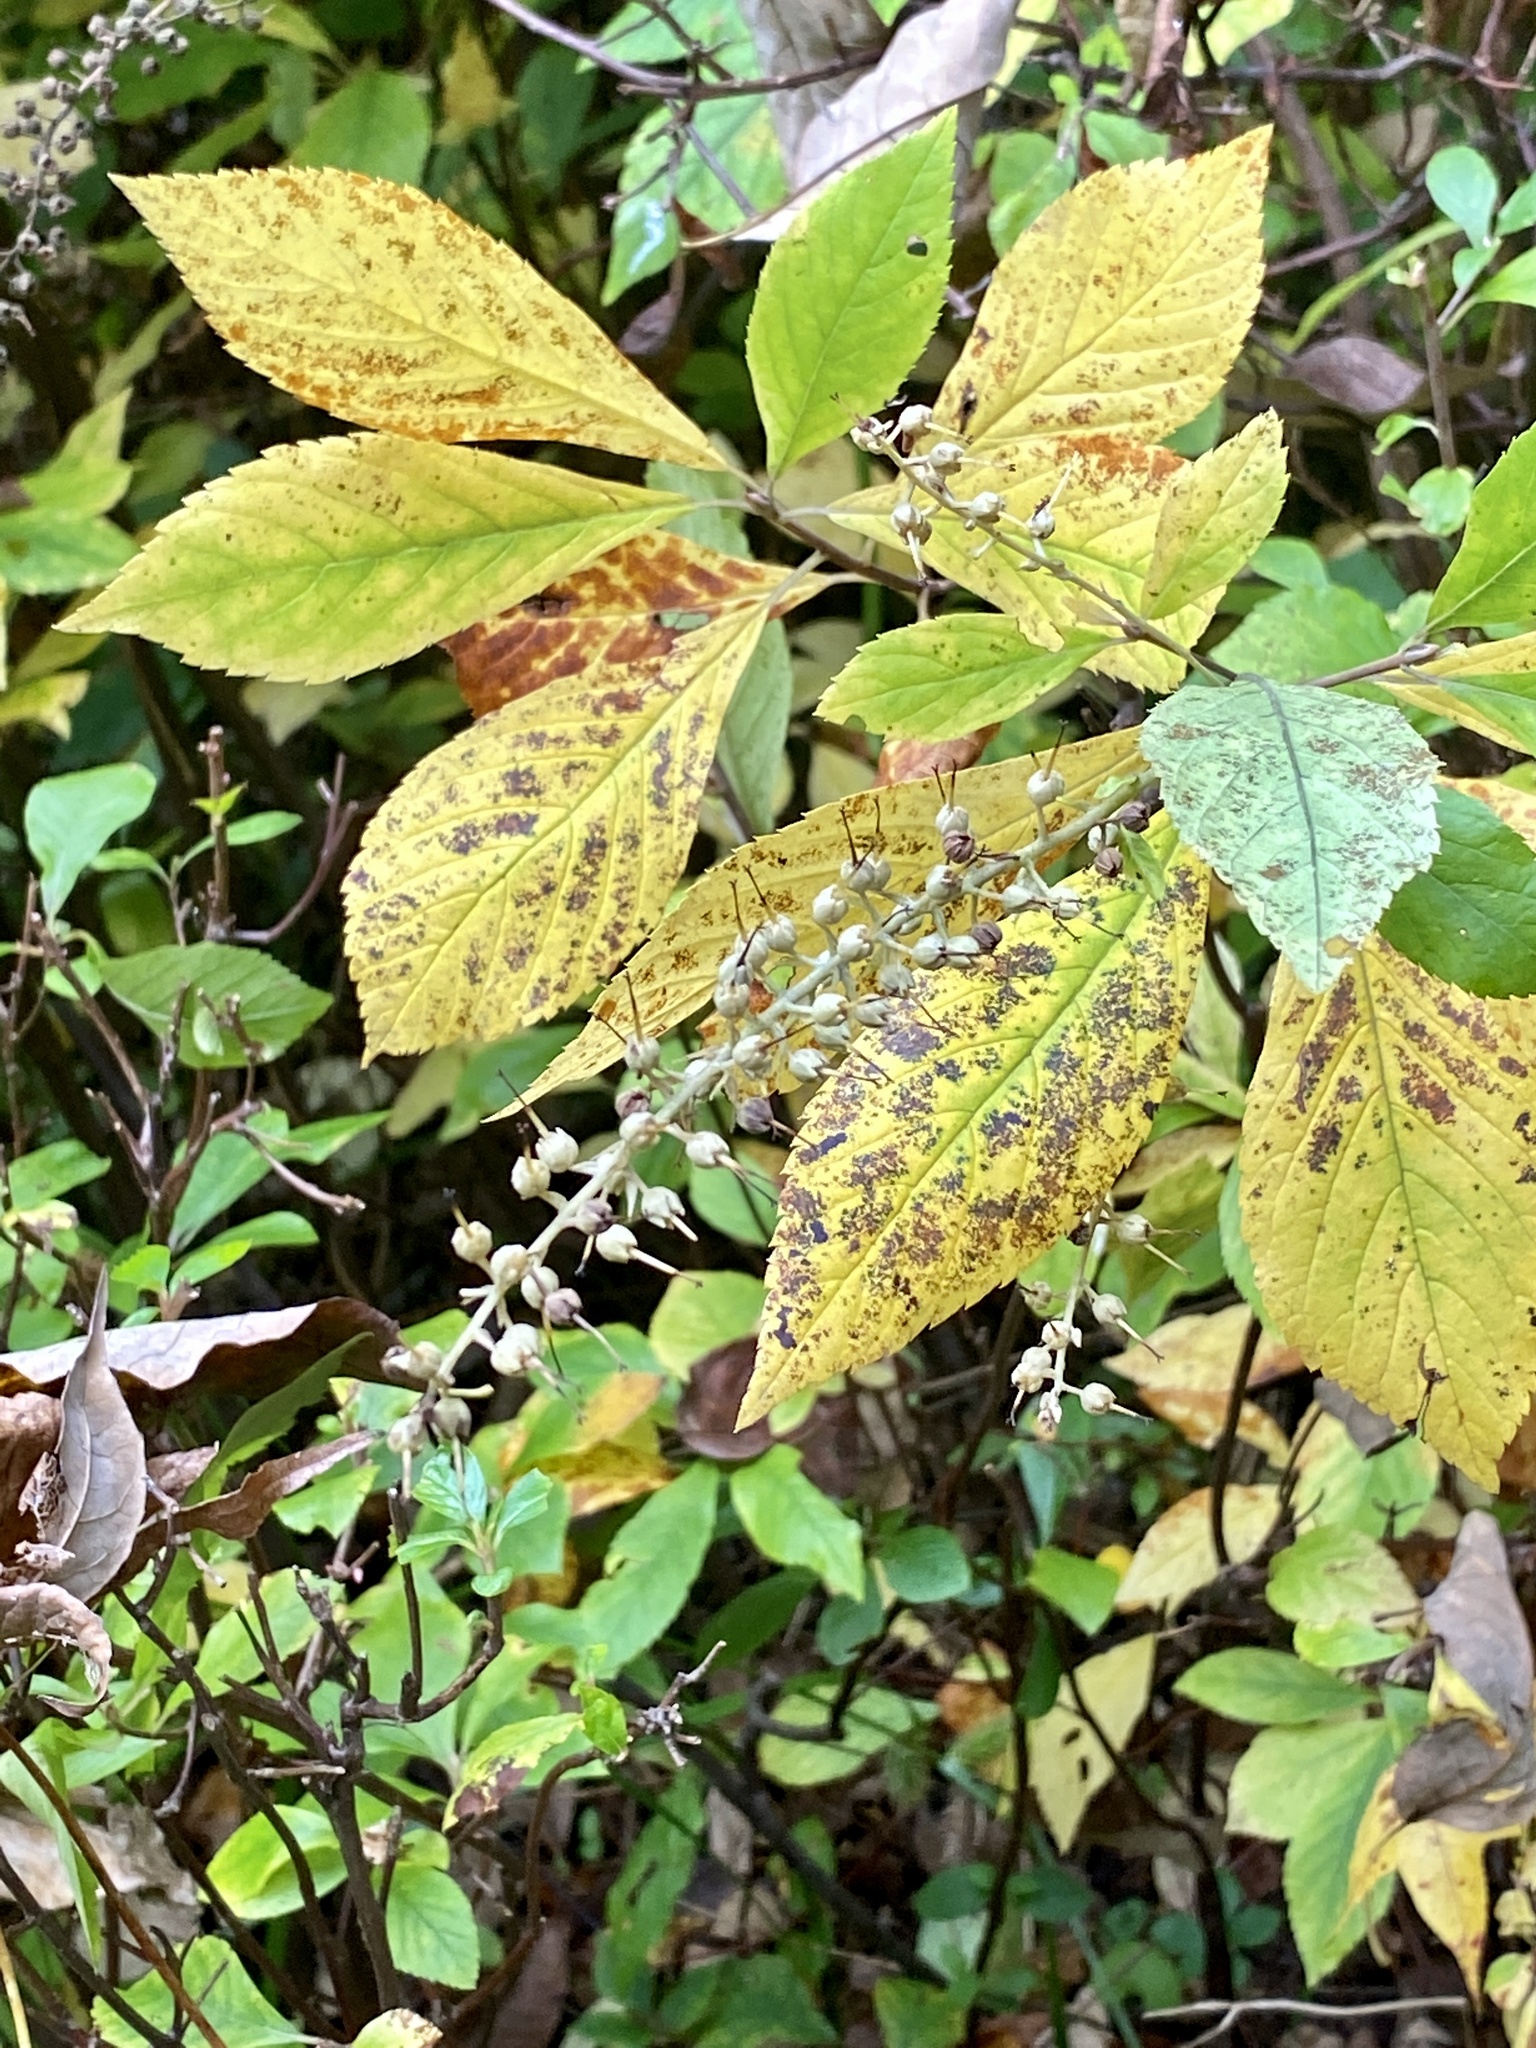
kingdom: Plantae
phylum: Tracheophyta
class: Magnoliopsida
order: Ericales
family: Clethraceae
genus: Clethra
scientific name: Clethra alnifolia
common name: Sweet pepperbush
